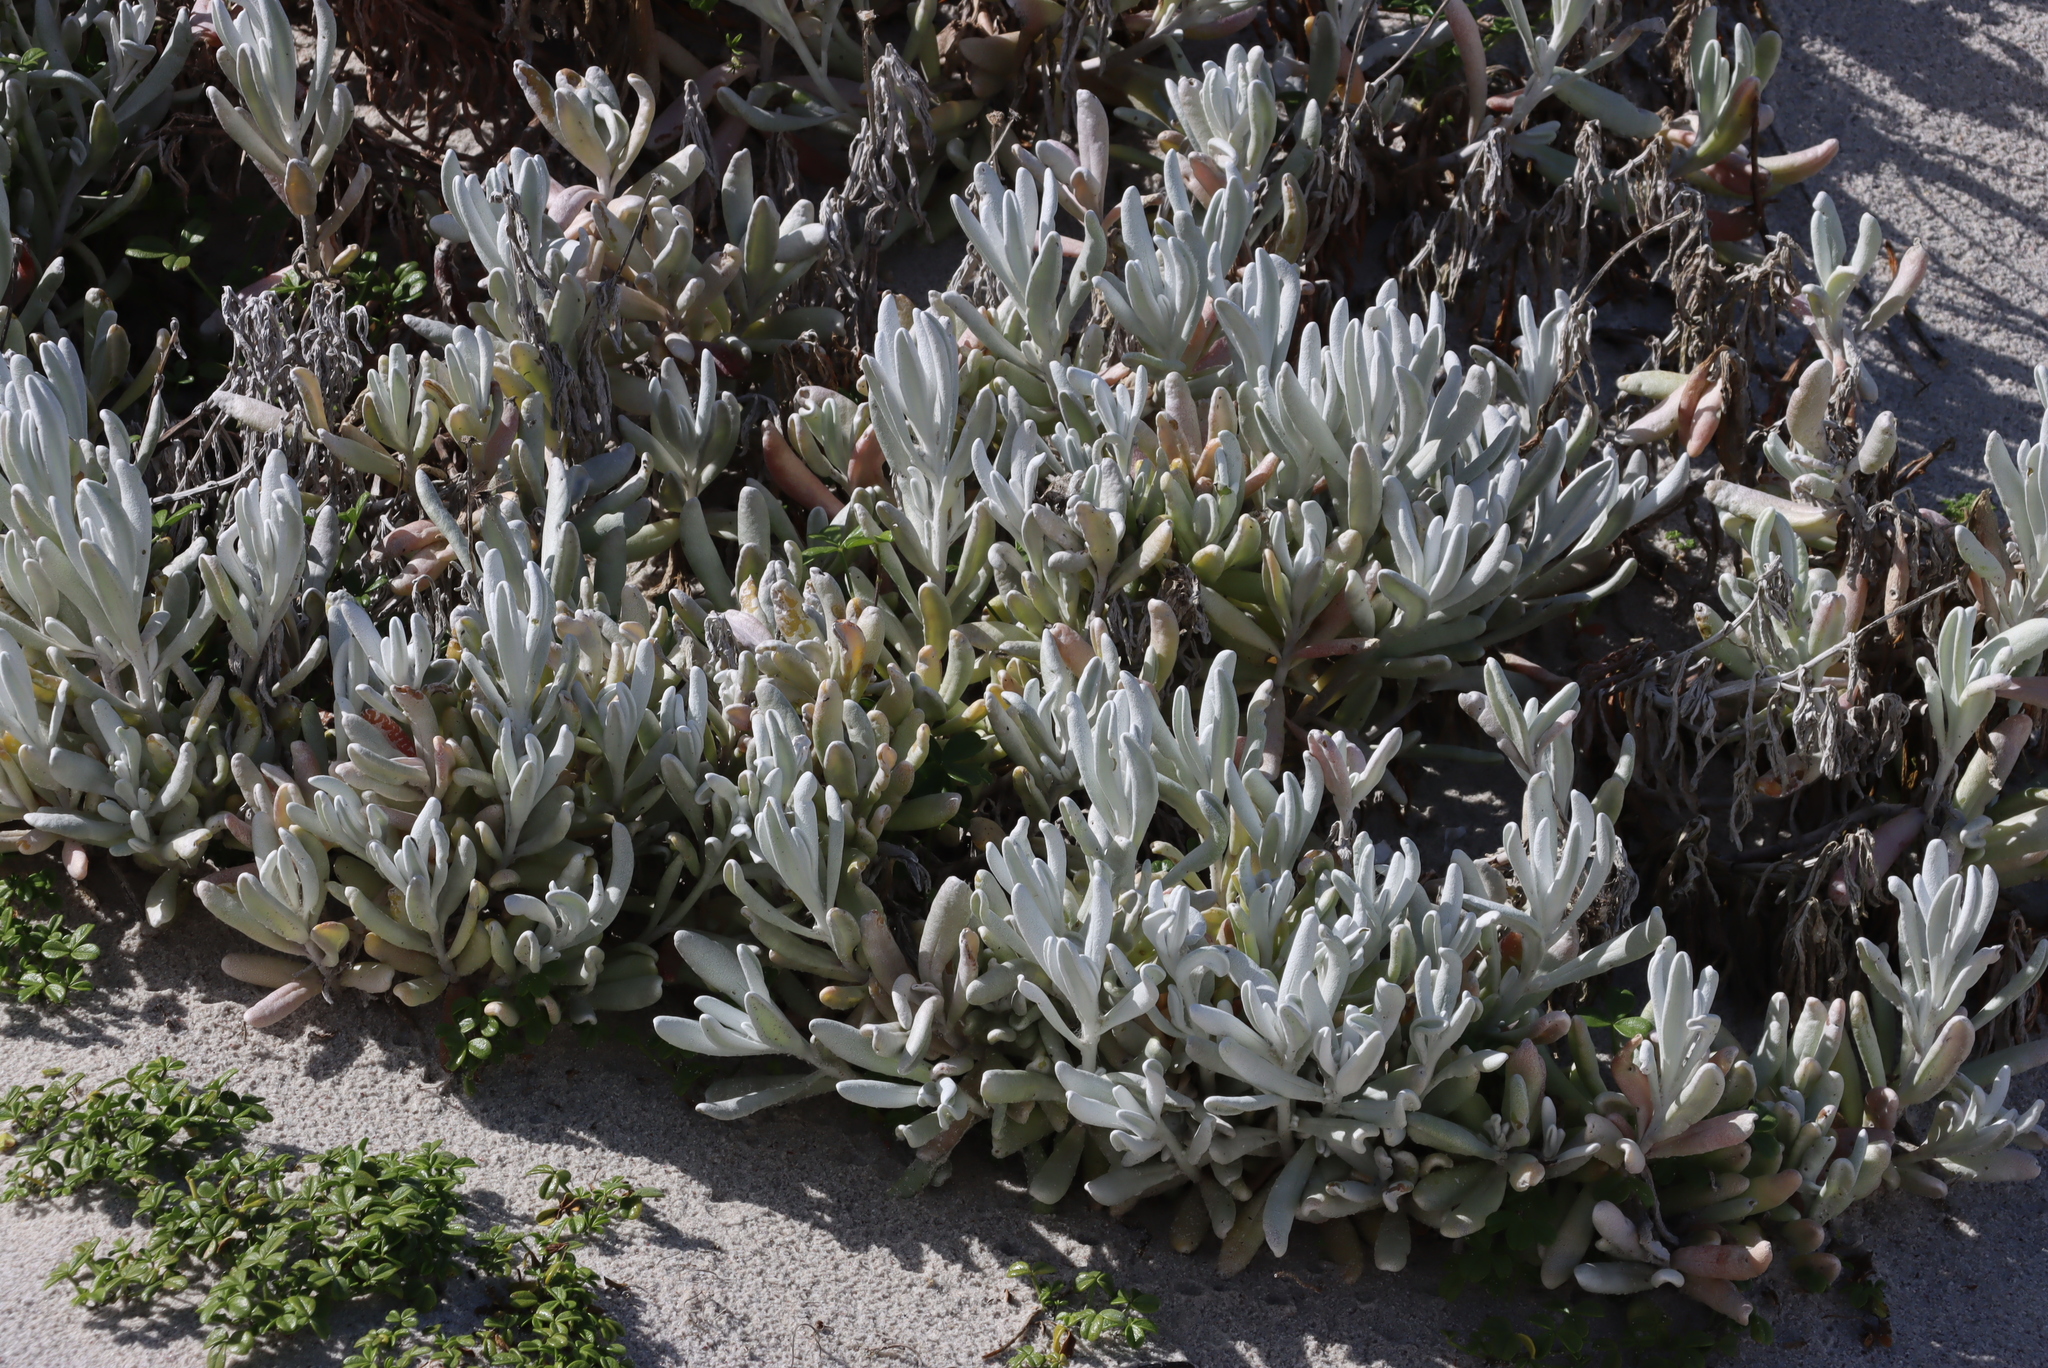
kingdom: Plantae
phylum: Tracheophyta
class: Magnoliopsida
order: Asterales
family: Asteraceae
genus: Didelta
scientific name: Didelta carnosa
